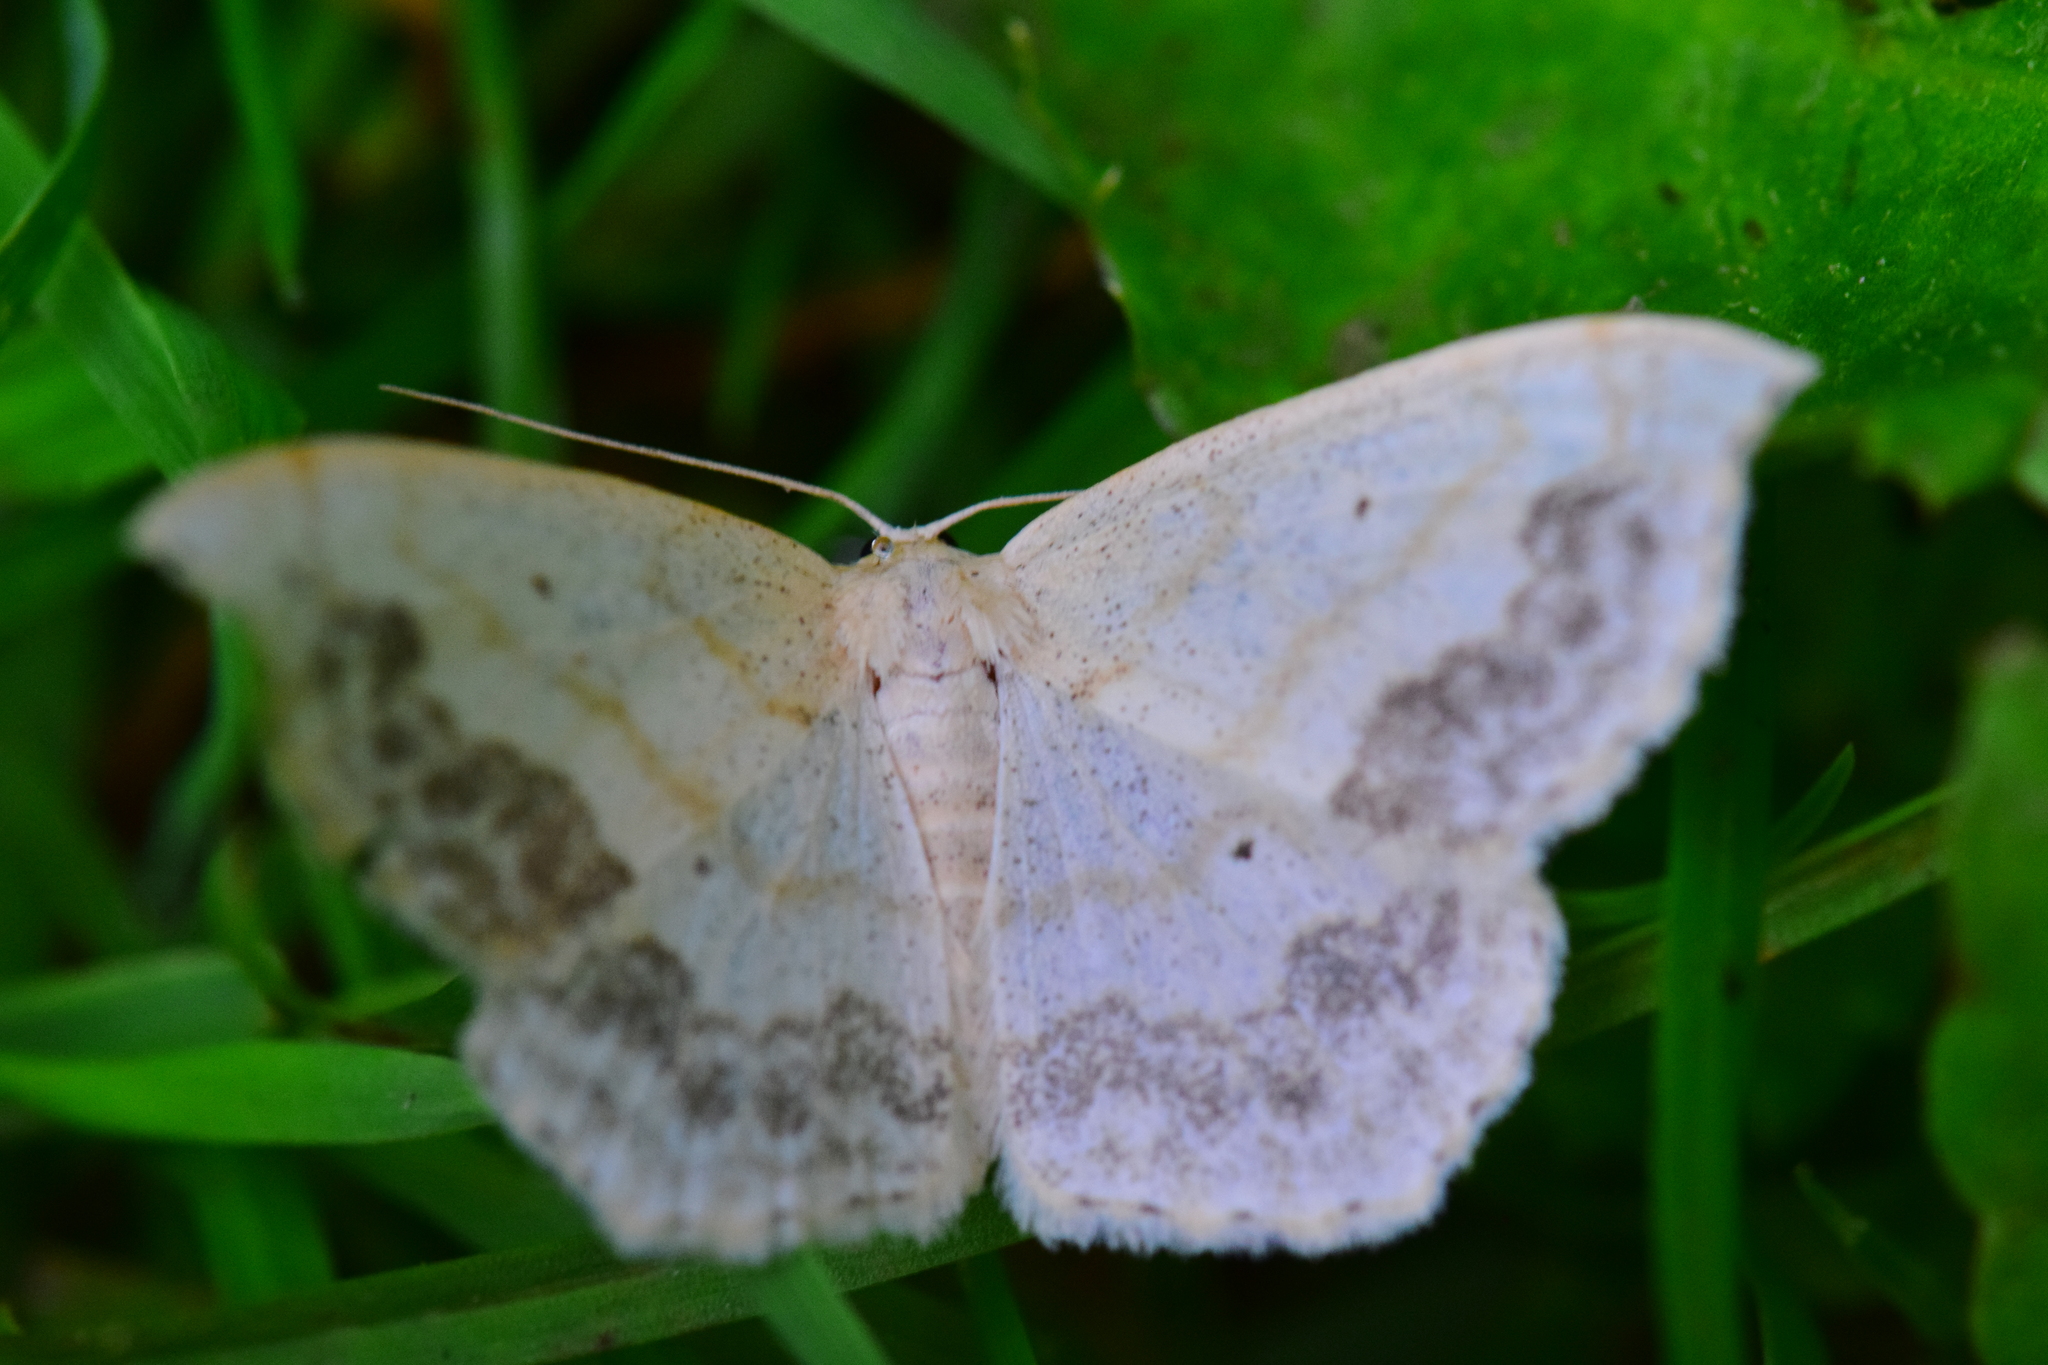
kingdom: Animalia
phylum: Arthropoda
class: Insecta
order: Lepidoptera
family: Geometridae
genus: Scopula
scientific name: Scopula limboundata
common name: Large lace border
